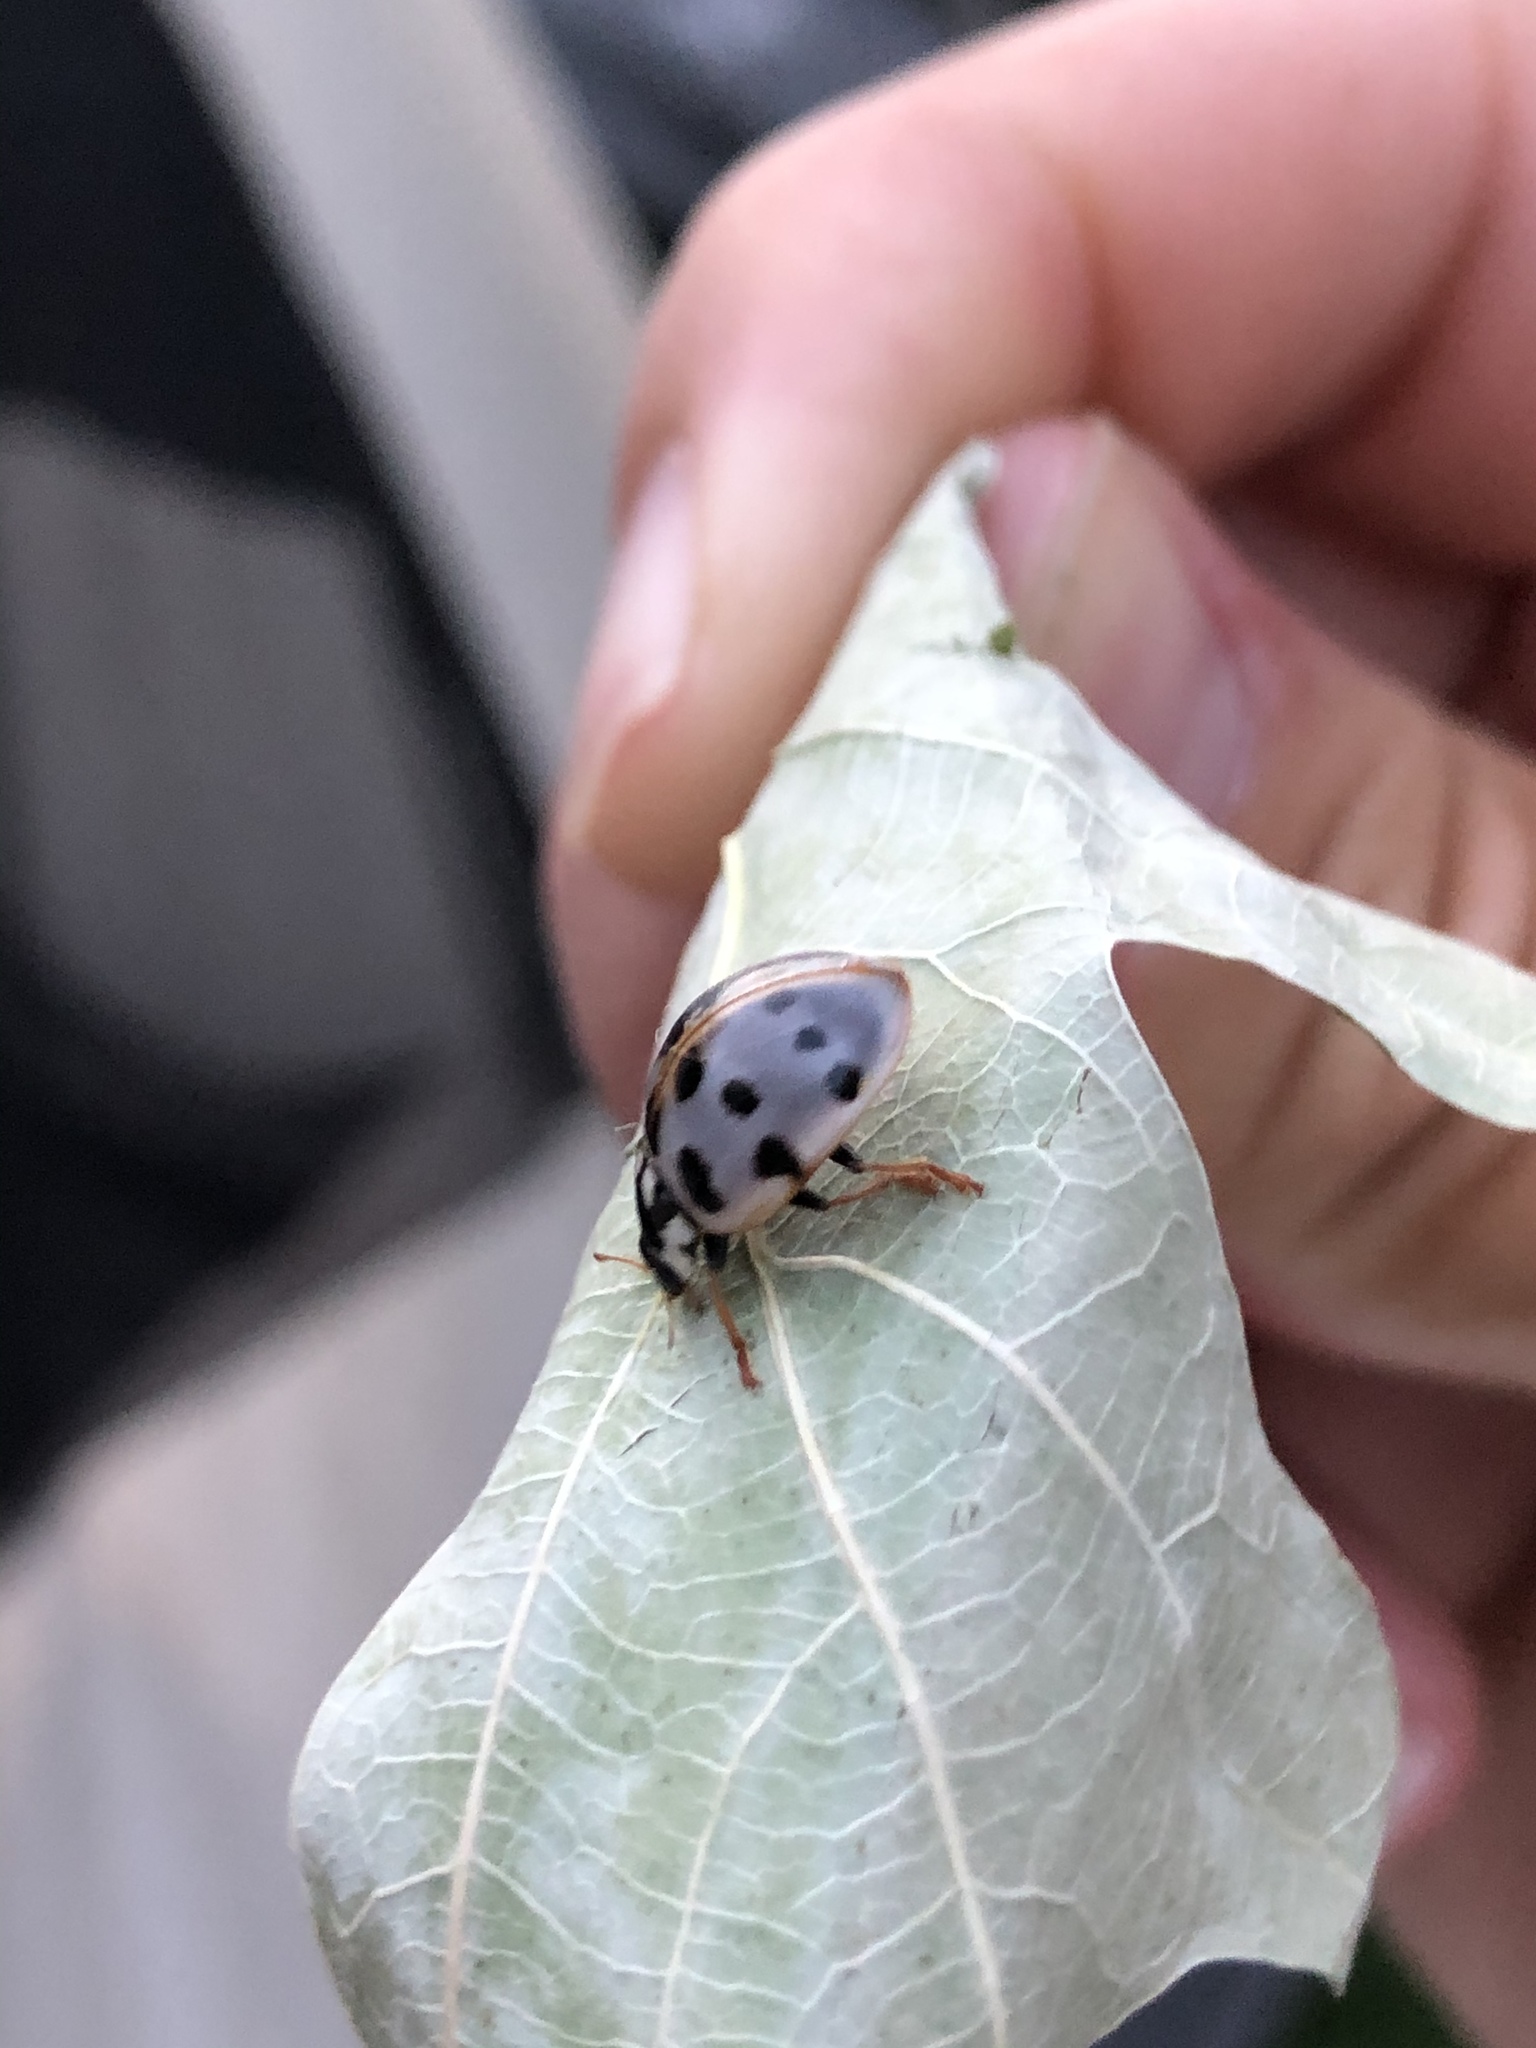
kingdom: Animalia
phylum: Arthropoda
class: Insecta
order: Coleoptera
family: Coccinellidae
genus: Anatis
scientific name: Anatis labiculata
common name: Fifteen-spotted lady beetle
